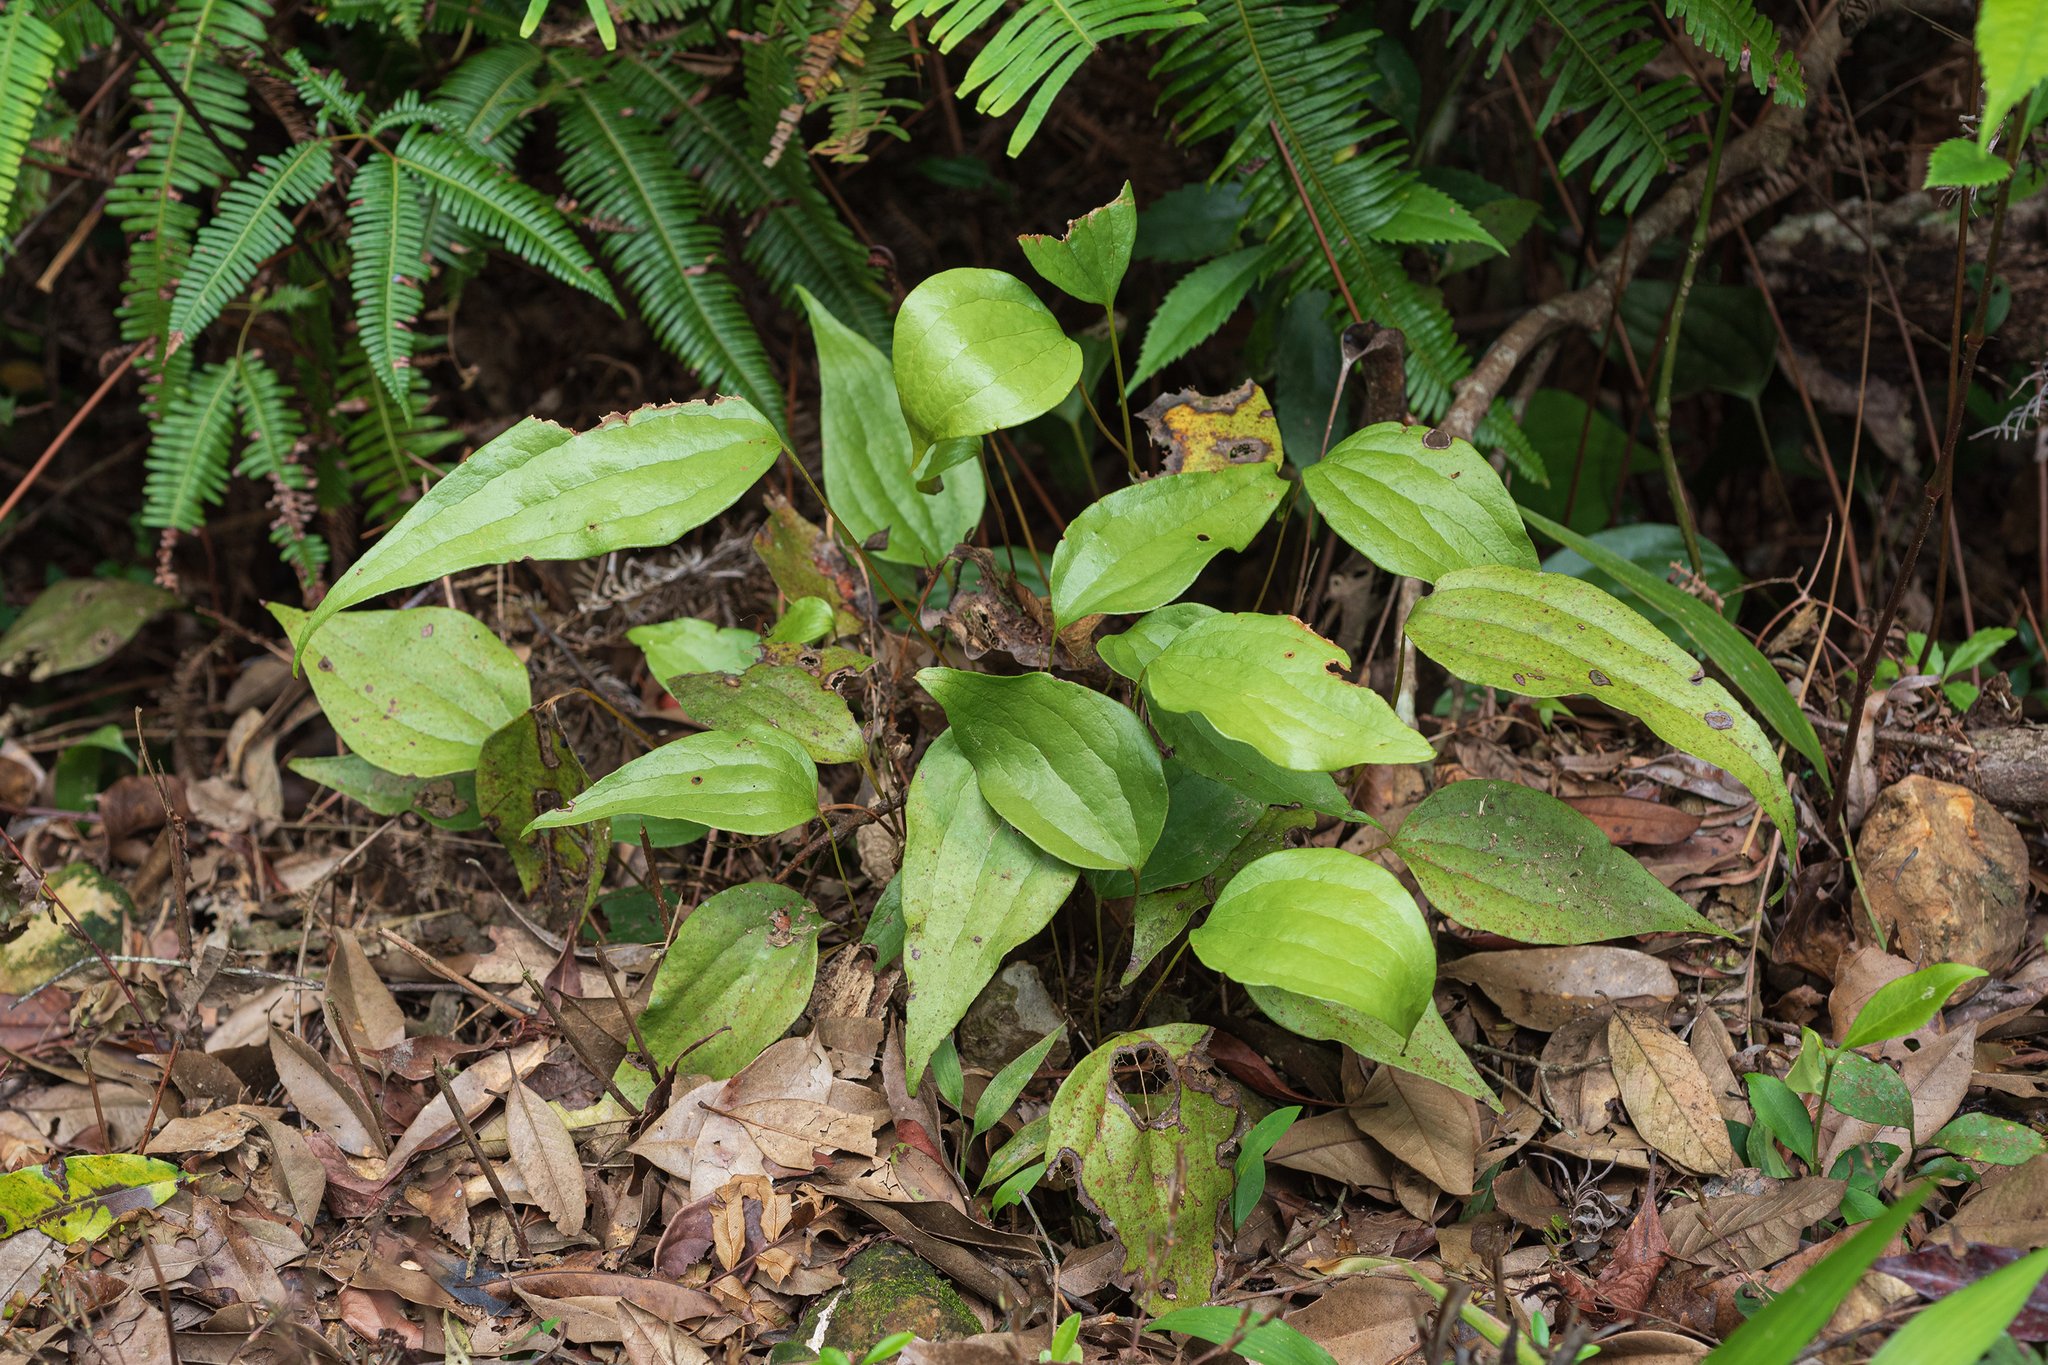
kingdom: Plantae
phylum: Tracheophyta
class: Polypodiopsida
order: Gleicheniales
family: Dipteridaceae
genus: Cheiropleuria
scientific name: Cheiropleuria integrifolia
